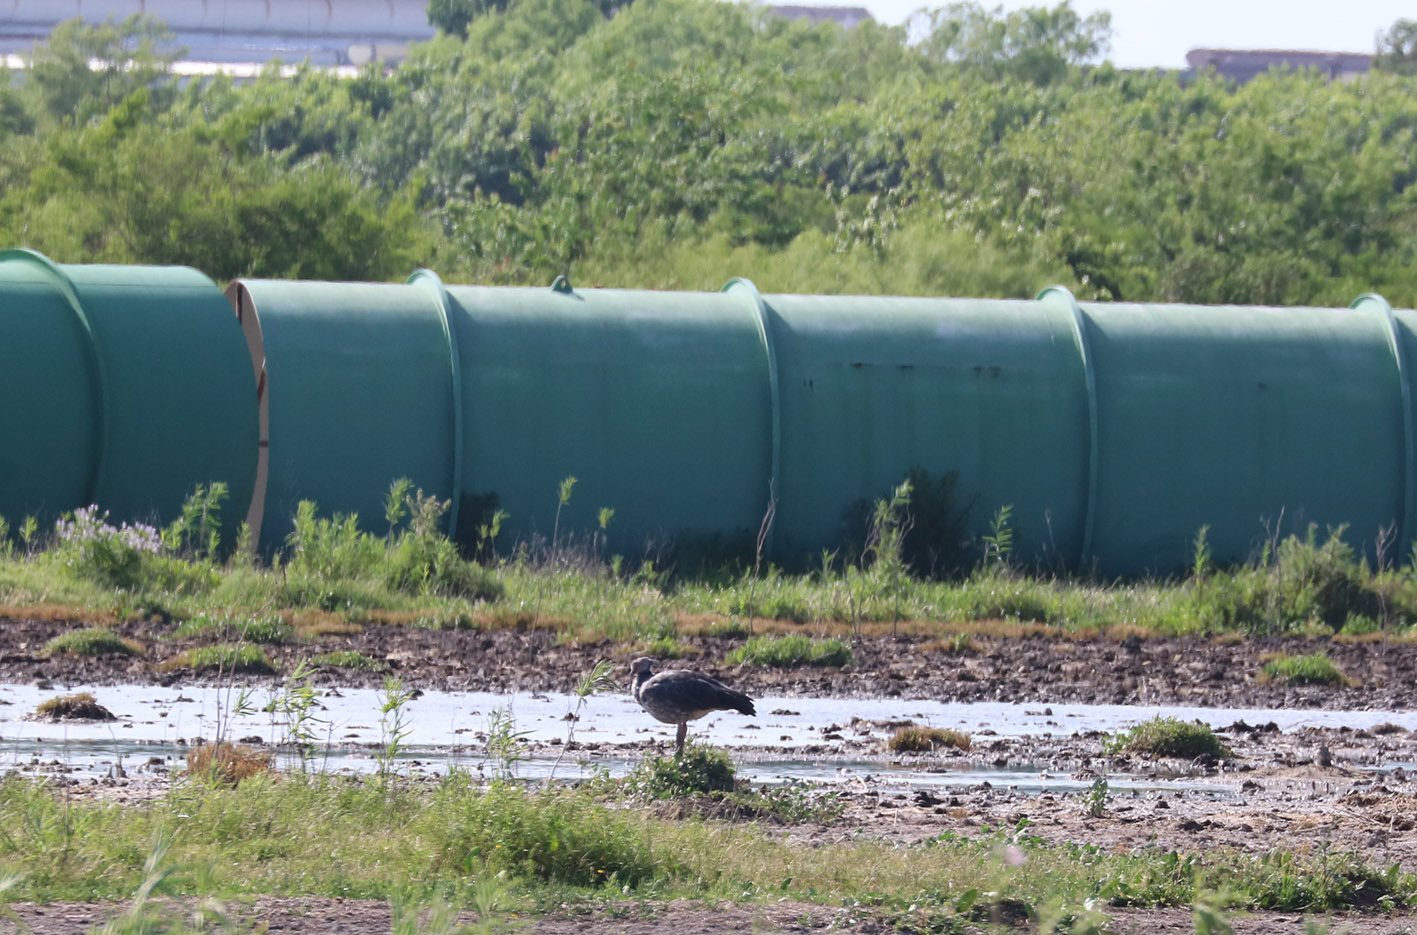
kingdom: Animalia
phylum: Chordata
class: Aves
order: Anseriformes
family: Anhimidae
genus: Chauna
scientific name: Chauna torquata
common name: Southern screamer
